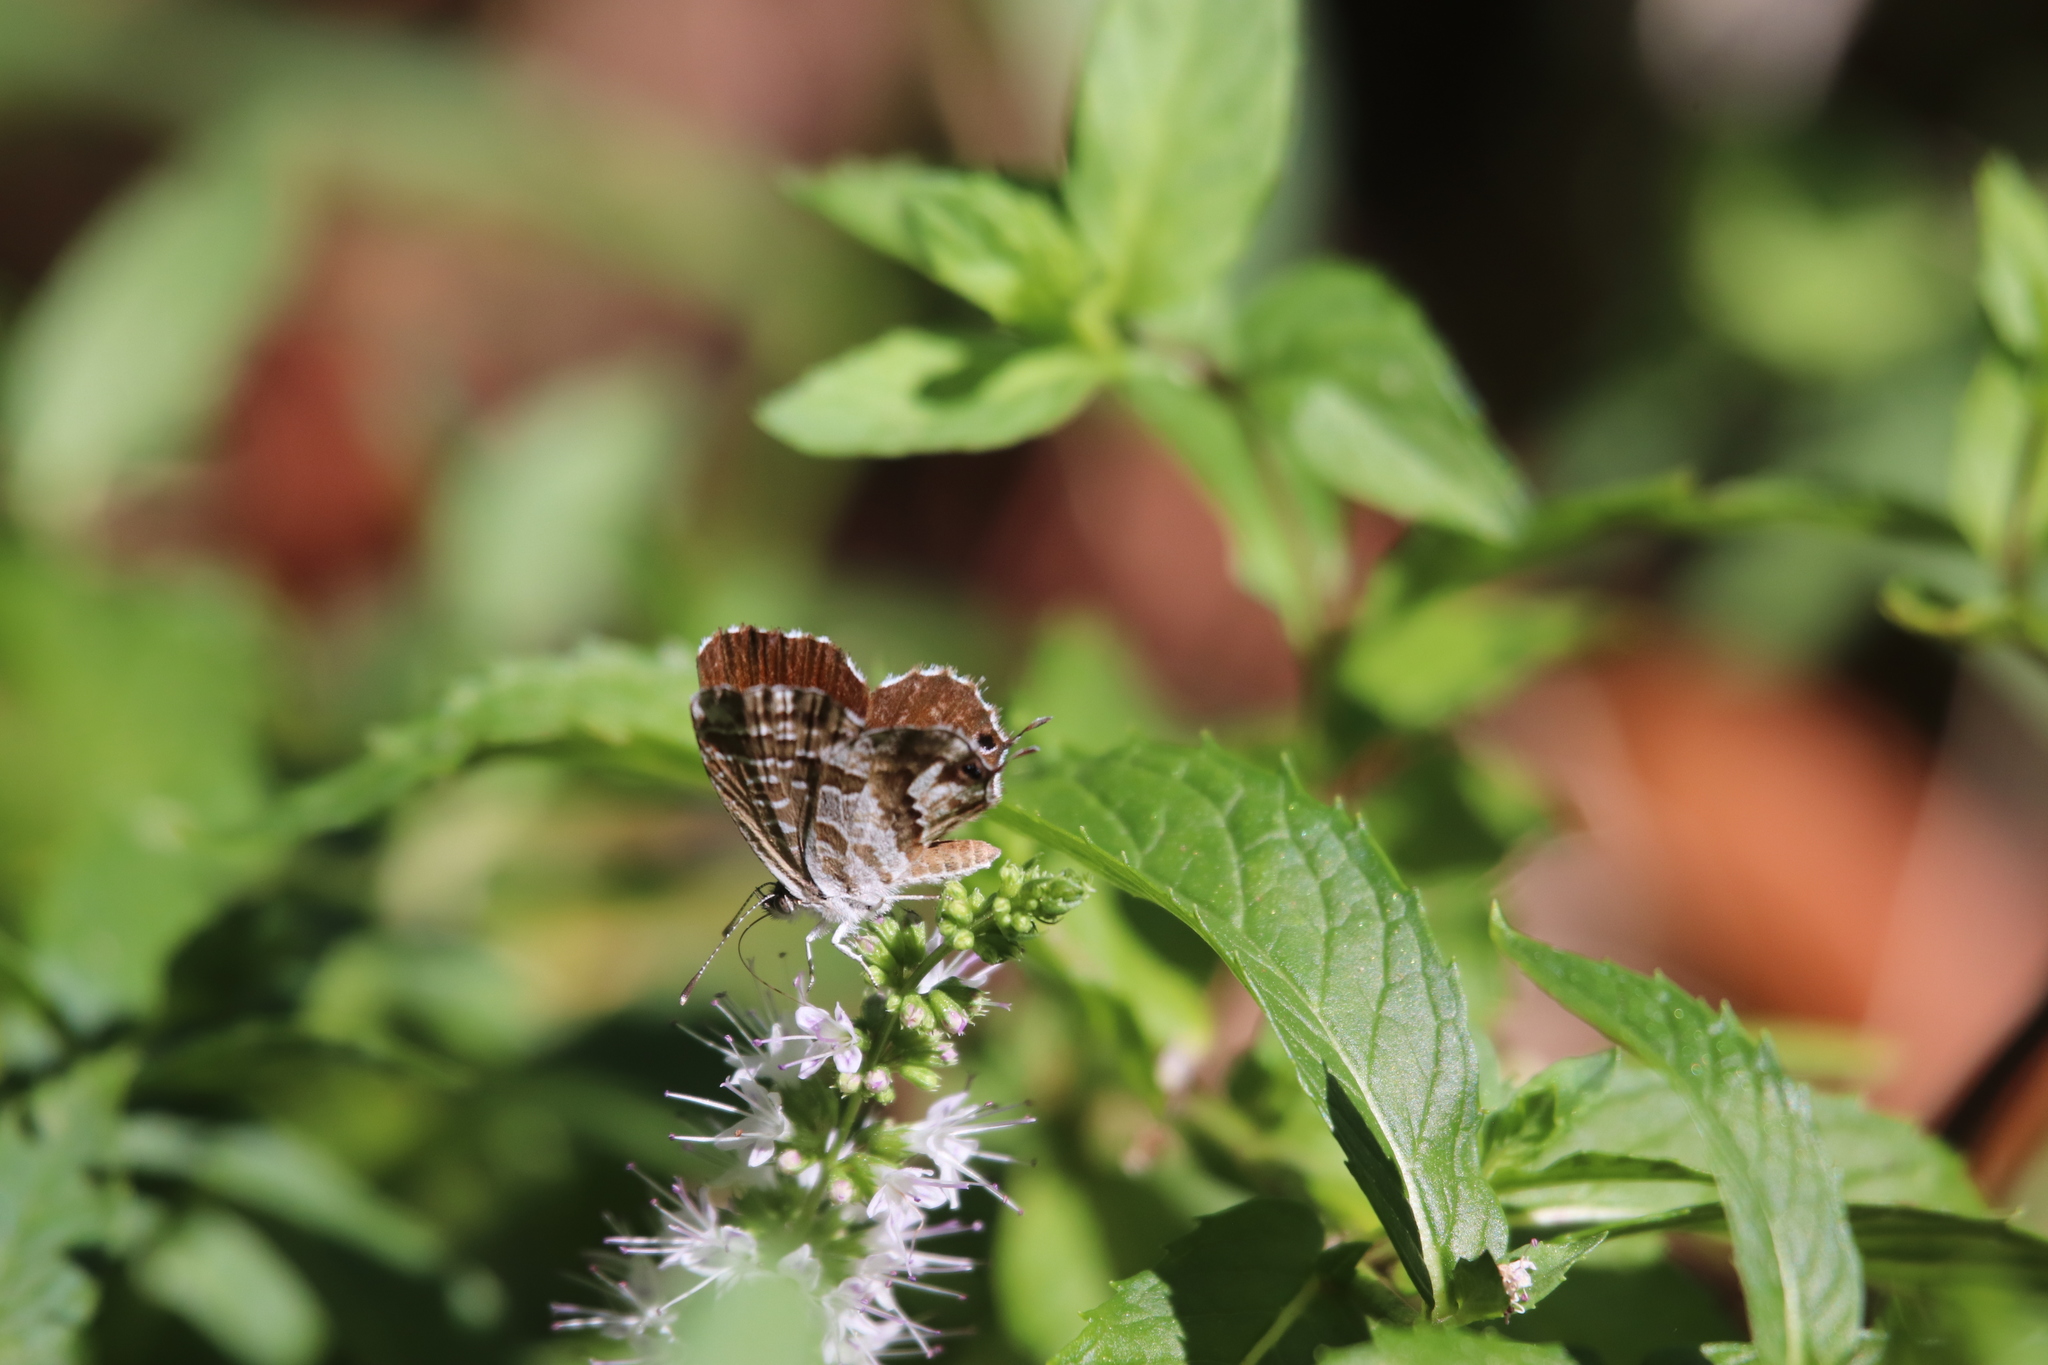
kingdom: Animalia
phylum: Arthropoda
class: Insecta
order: Lepidoptera
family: Lycaenidae
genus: Cacyreus
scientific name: Cacyreus marshalli
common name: Geranium bronze
